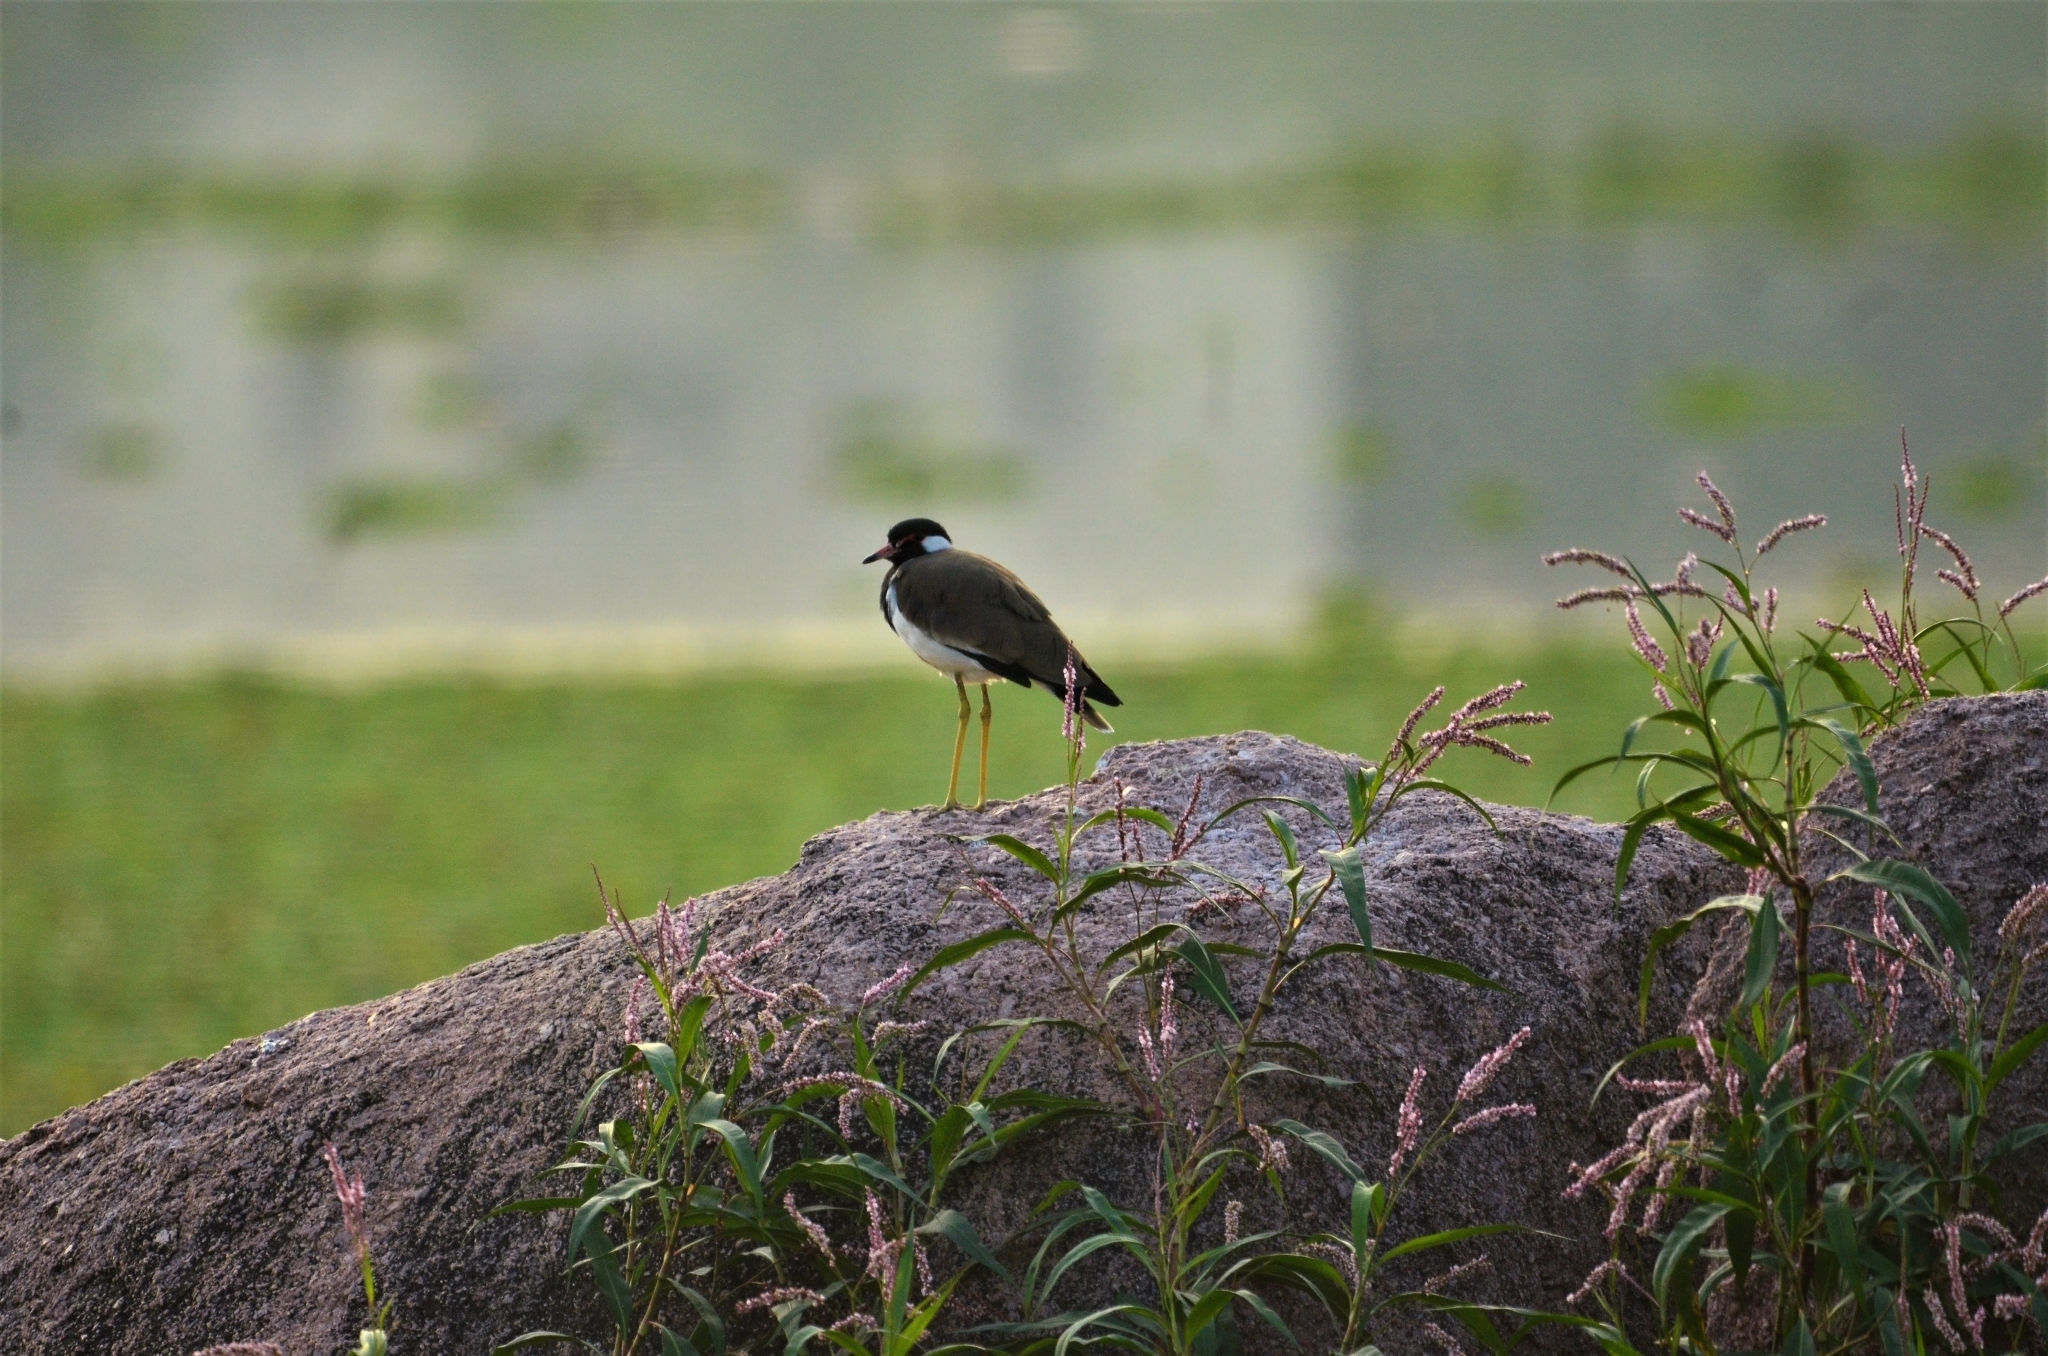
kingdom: Animalia
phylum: Chordata
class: Aves
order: Charadriiformes
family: Charadriidae
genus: Vanellus
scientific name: Vanellus indicus
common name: Red-wattled lapwing
